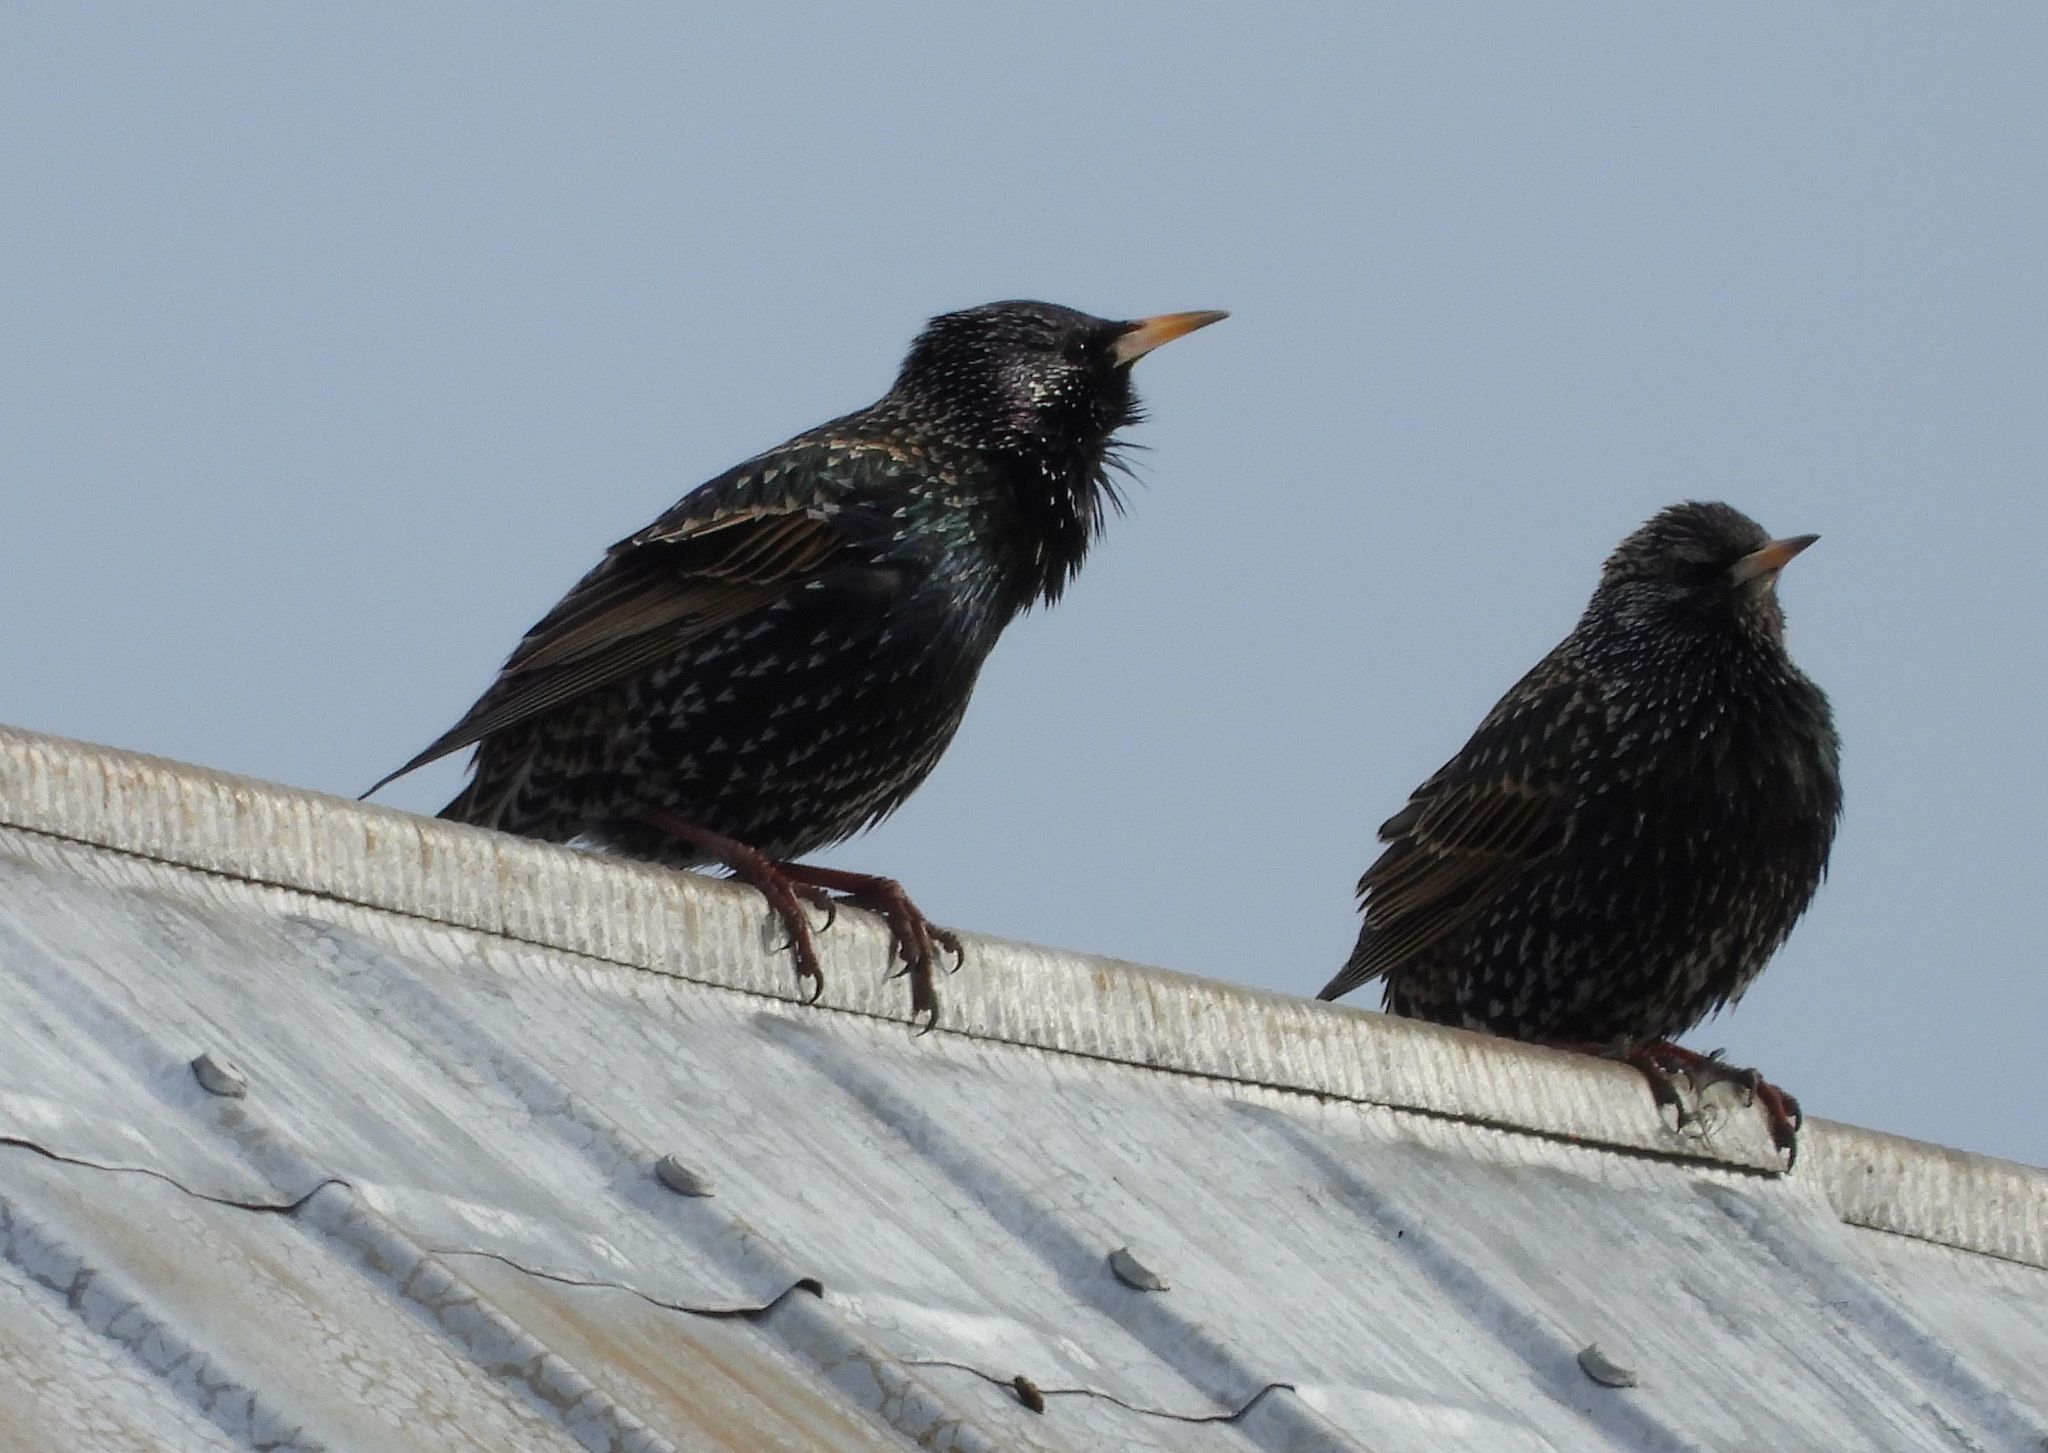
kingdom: Animalia
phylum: Chordata
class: Aves
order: Passeriformes
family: Sturnidae
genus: Sturnus
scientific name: Sturnus vulgaris
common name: Common starling
